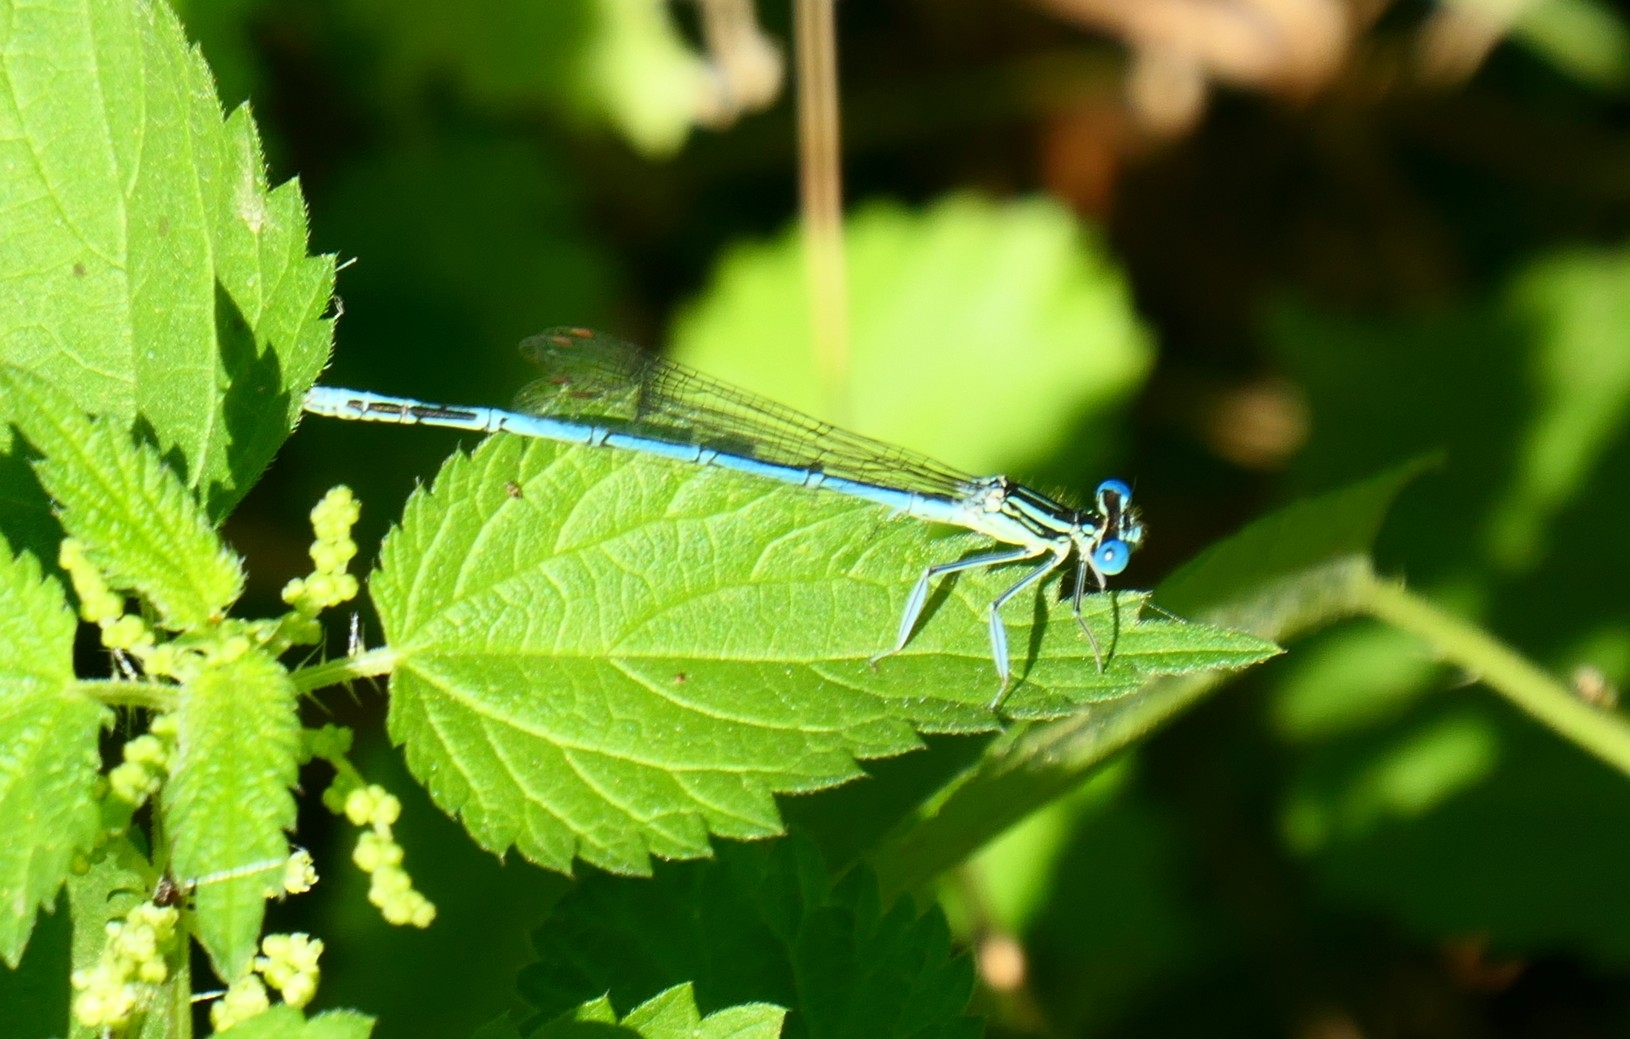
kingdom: Animalia
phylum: Arthropoda
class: Insecta
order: Odonata
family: Platycnemididae
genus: Platycnemis
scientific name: Platycnemis pennipes
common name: White-legged damselfly
